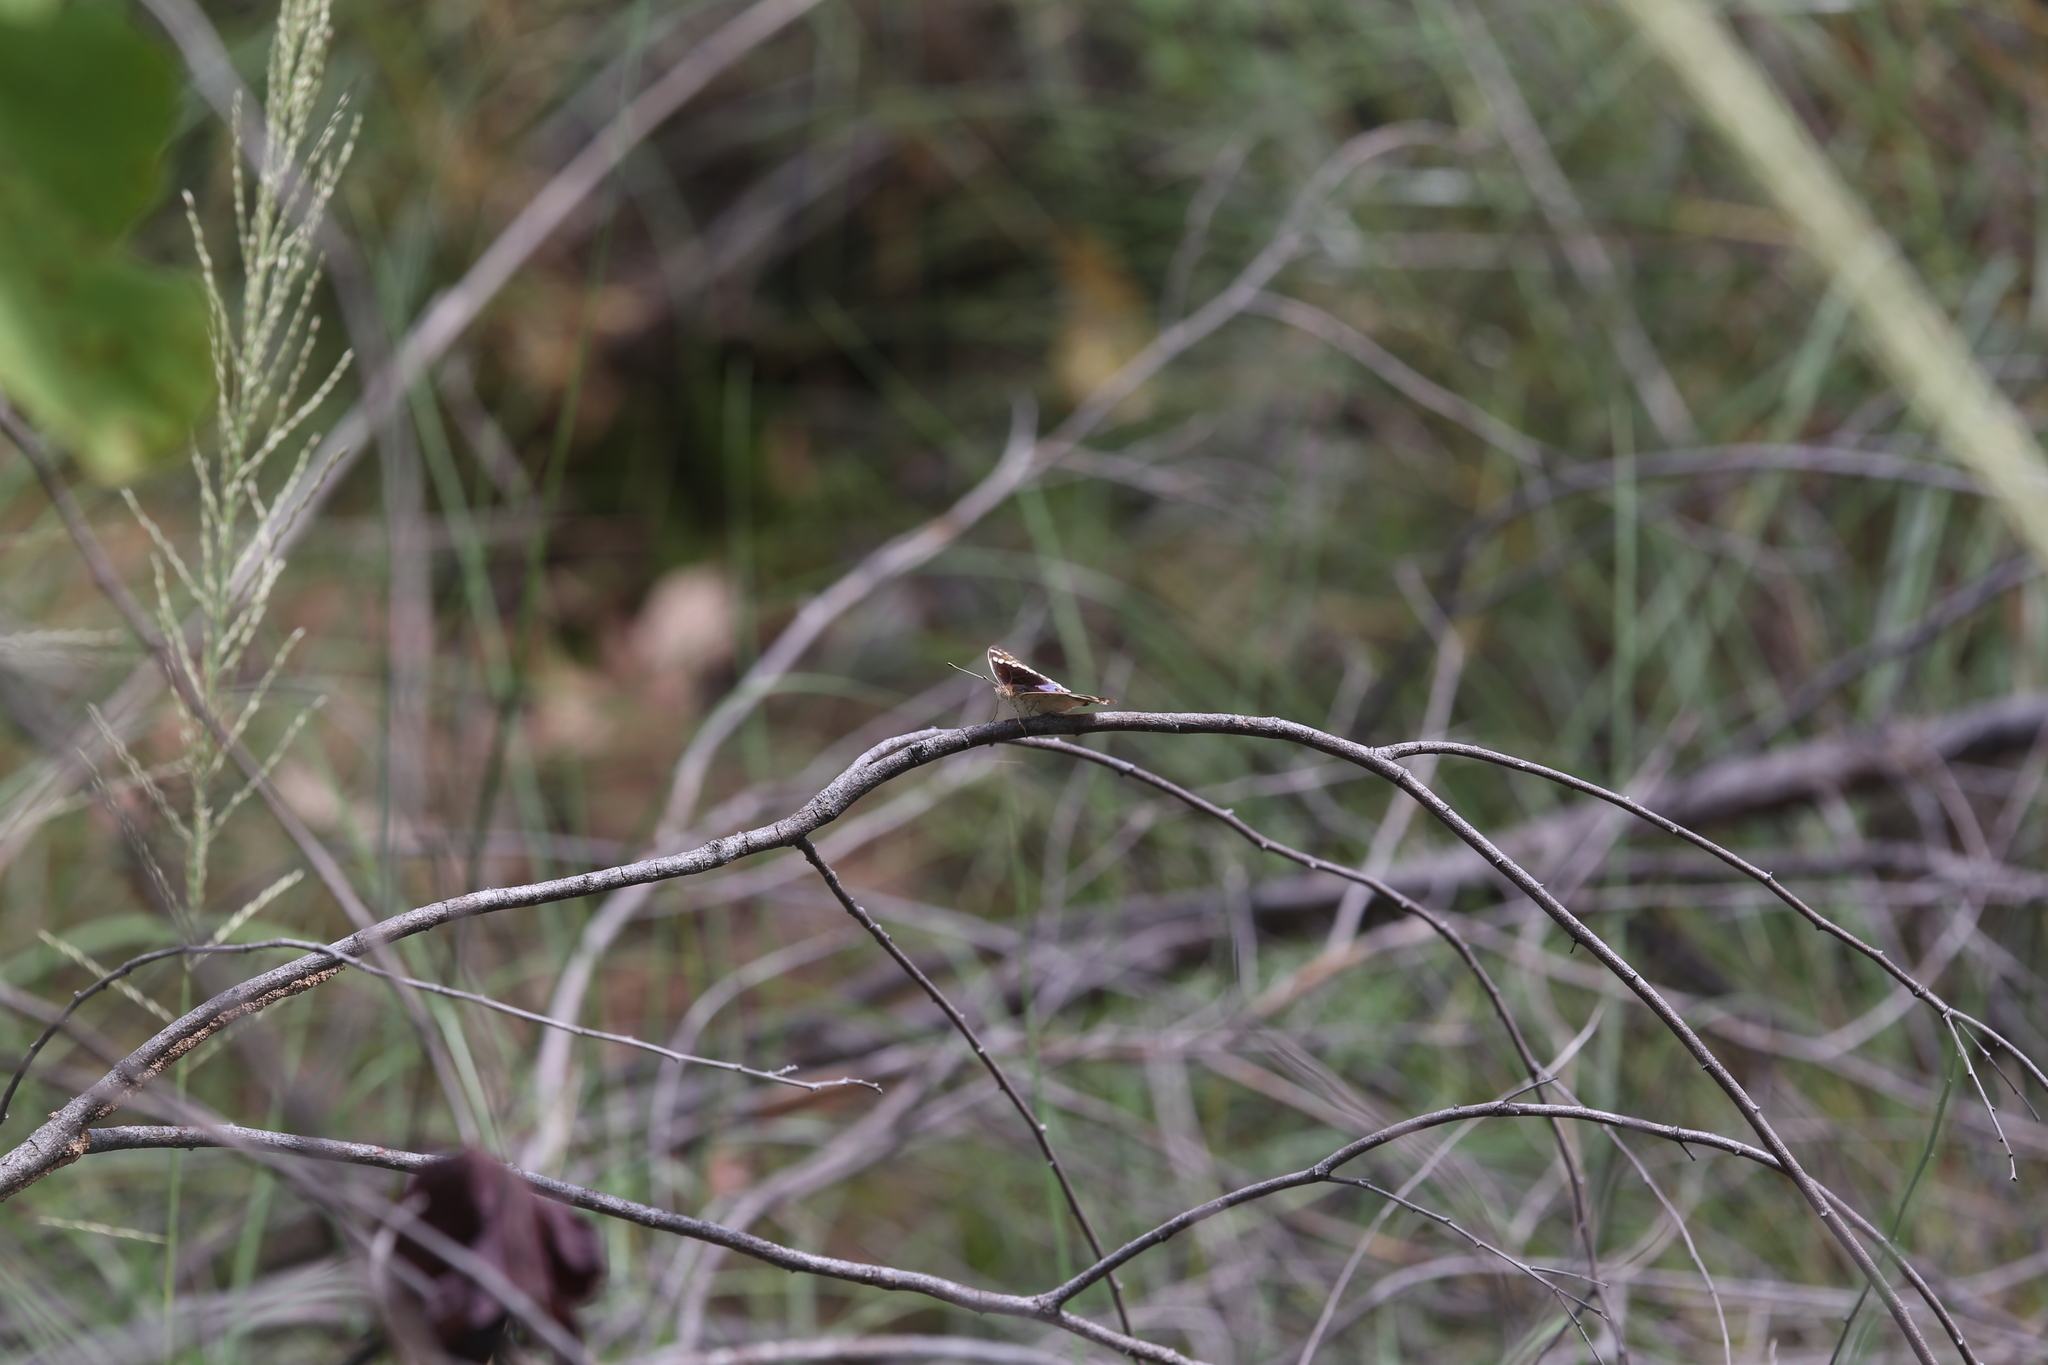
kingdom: Animalia
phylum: Arthropoda
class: Insecta
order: Lepidoptera
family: Nymphalidae
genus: Junonia
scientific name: Junonia orithya
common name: Blue pansy
